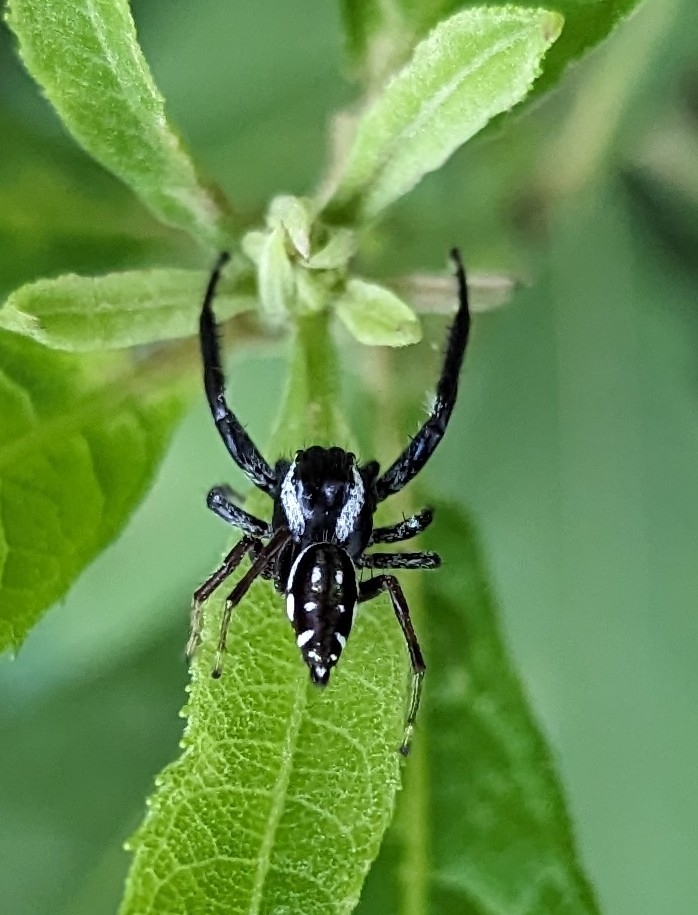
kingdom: Animalia
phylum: Arthropoda
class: Arachnida
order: Araneae
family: Salticidae
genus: Paraphidippus
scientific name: Paraphidippus aurantius
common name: Jumping spiders
